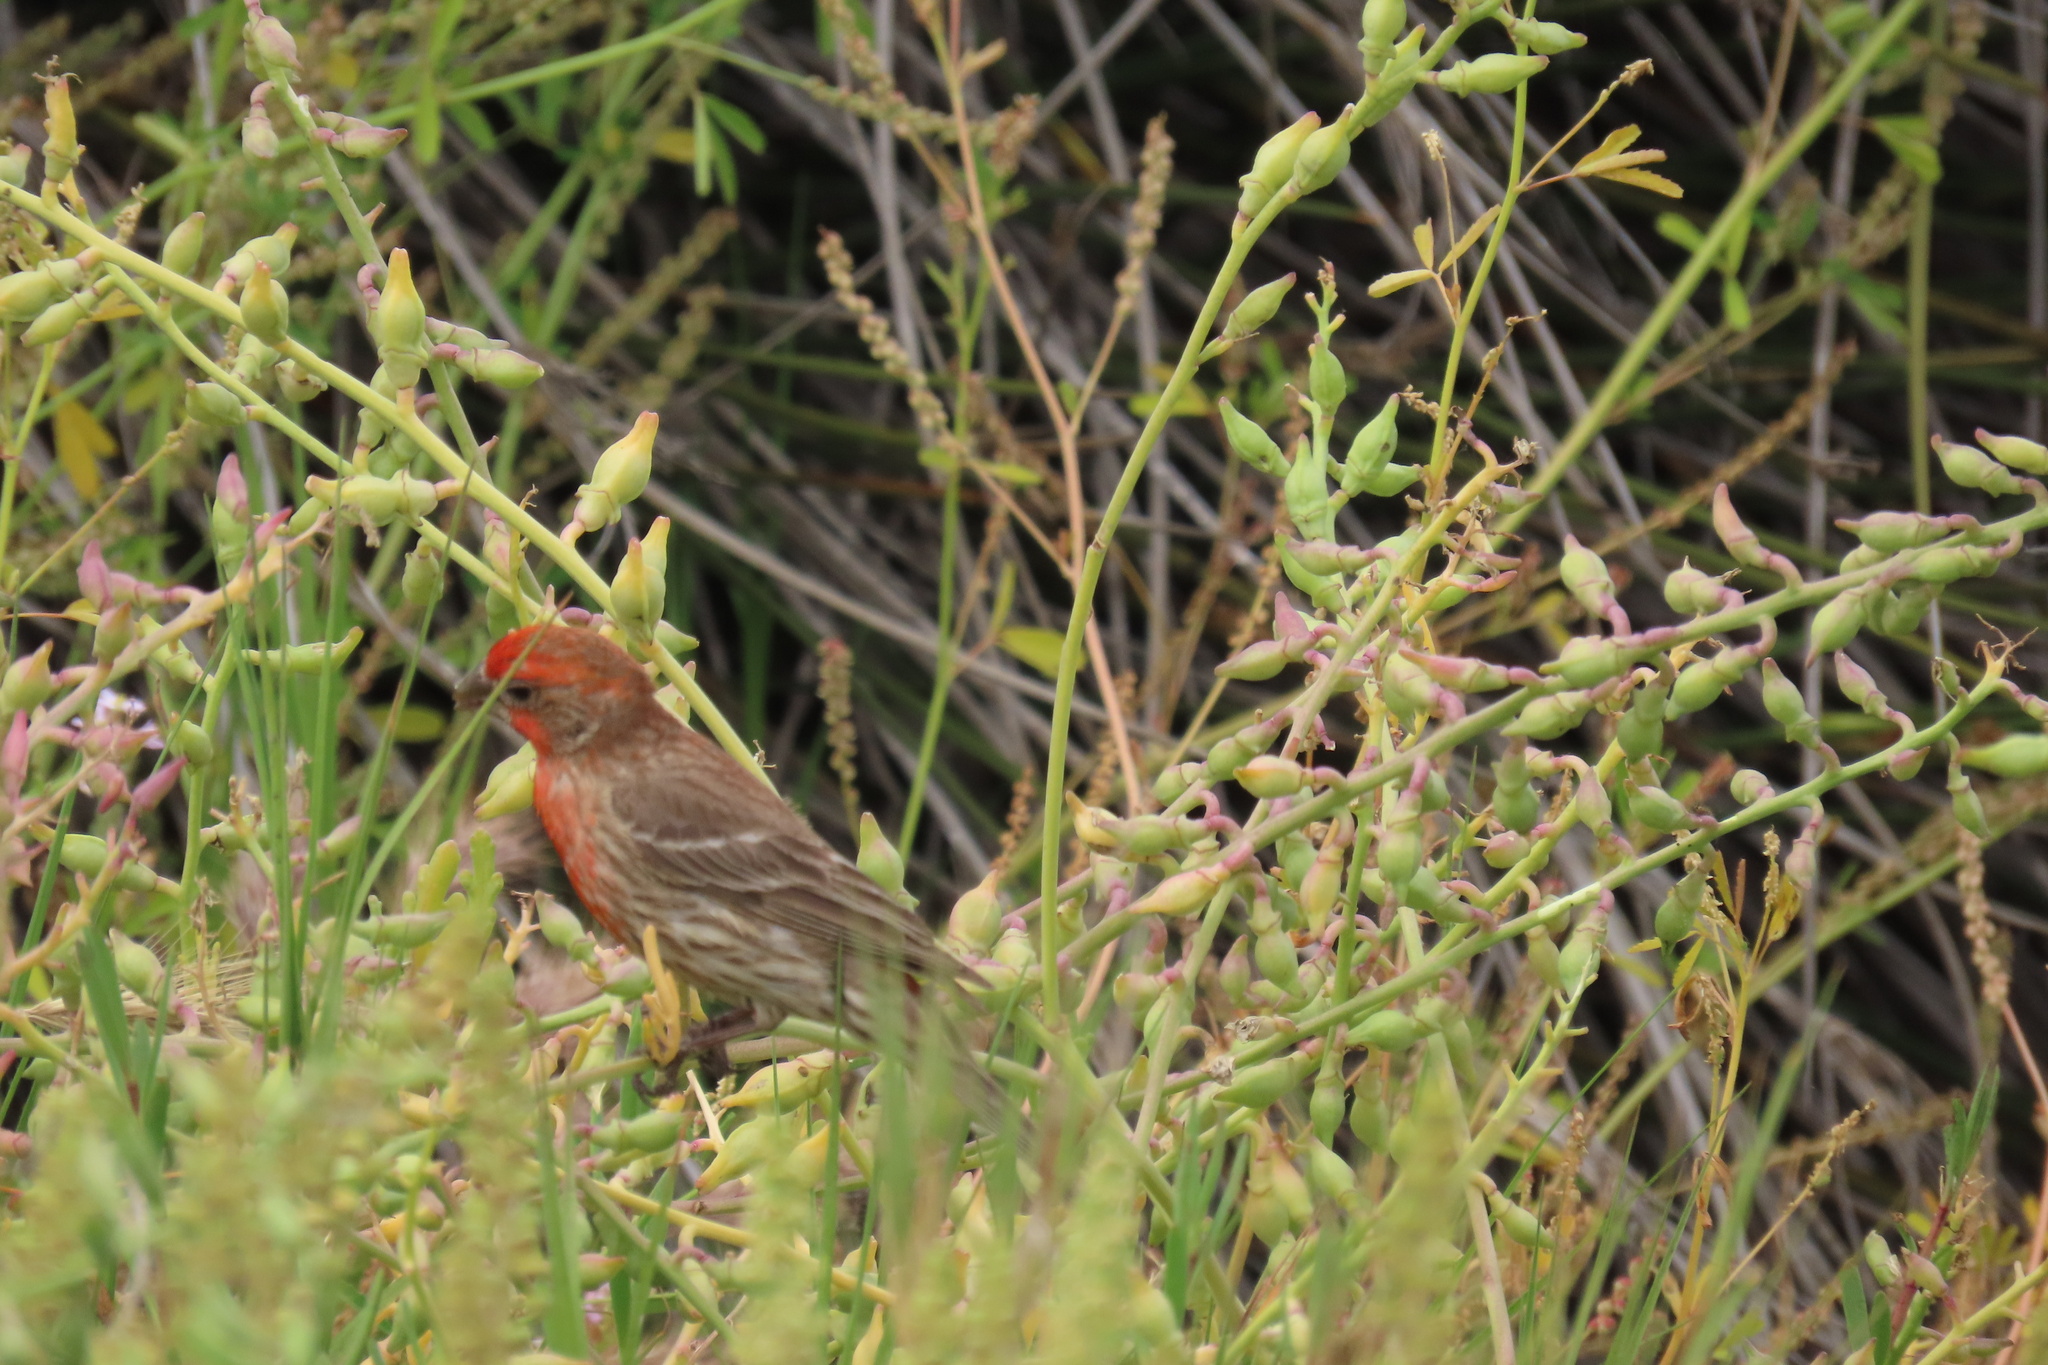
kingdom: Animalia
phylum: Chordata
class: Aves
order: Passeriformes
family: Fringillidae
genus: Haemorhous
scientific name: Haemorhous mexicanus
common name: House finch
